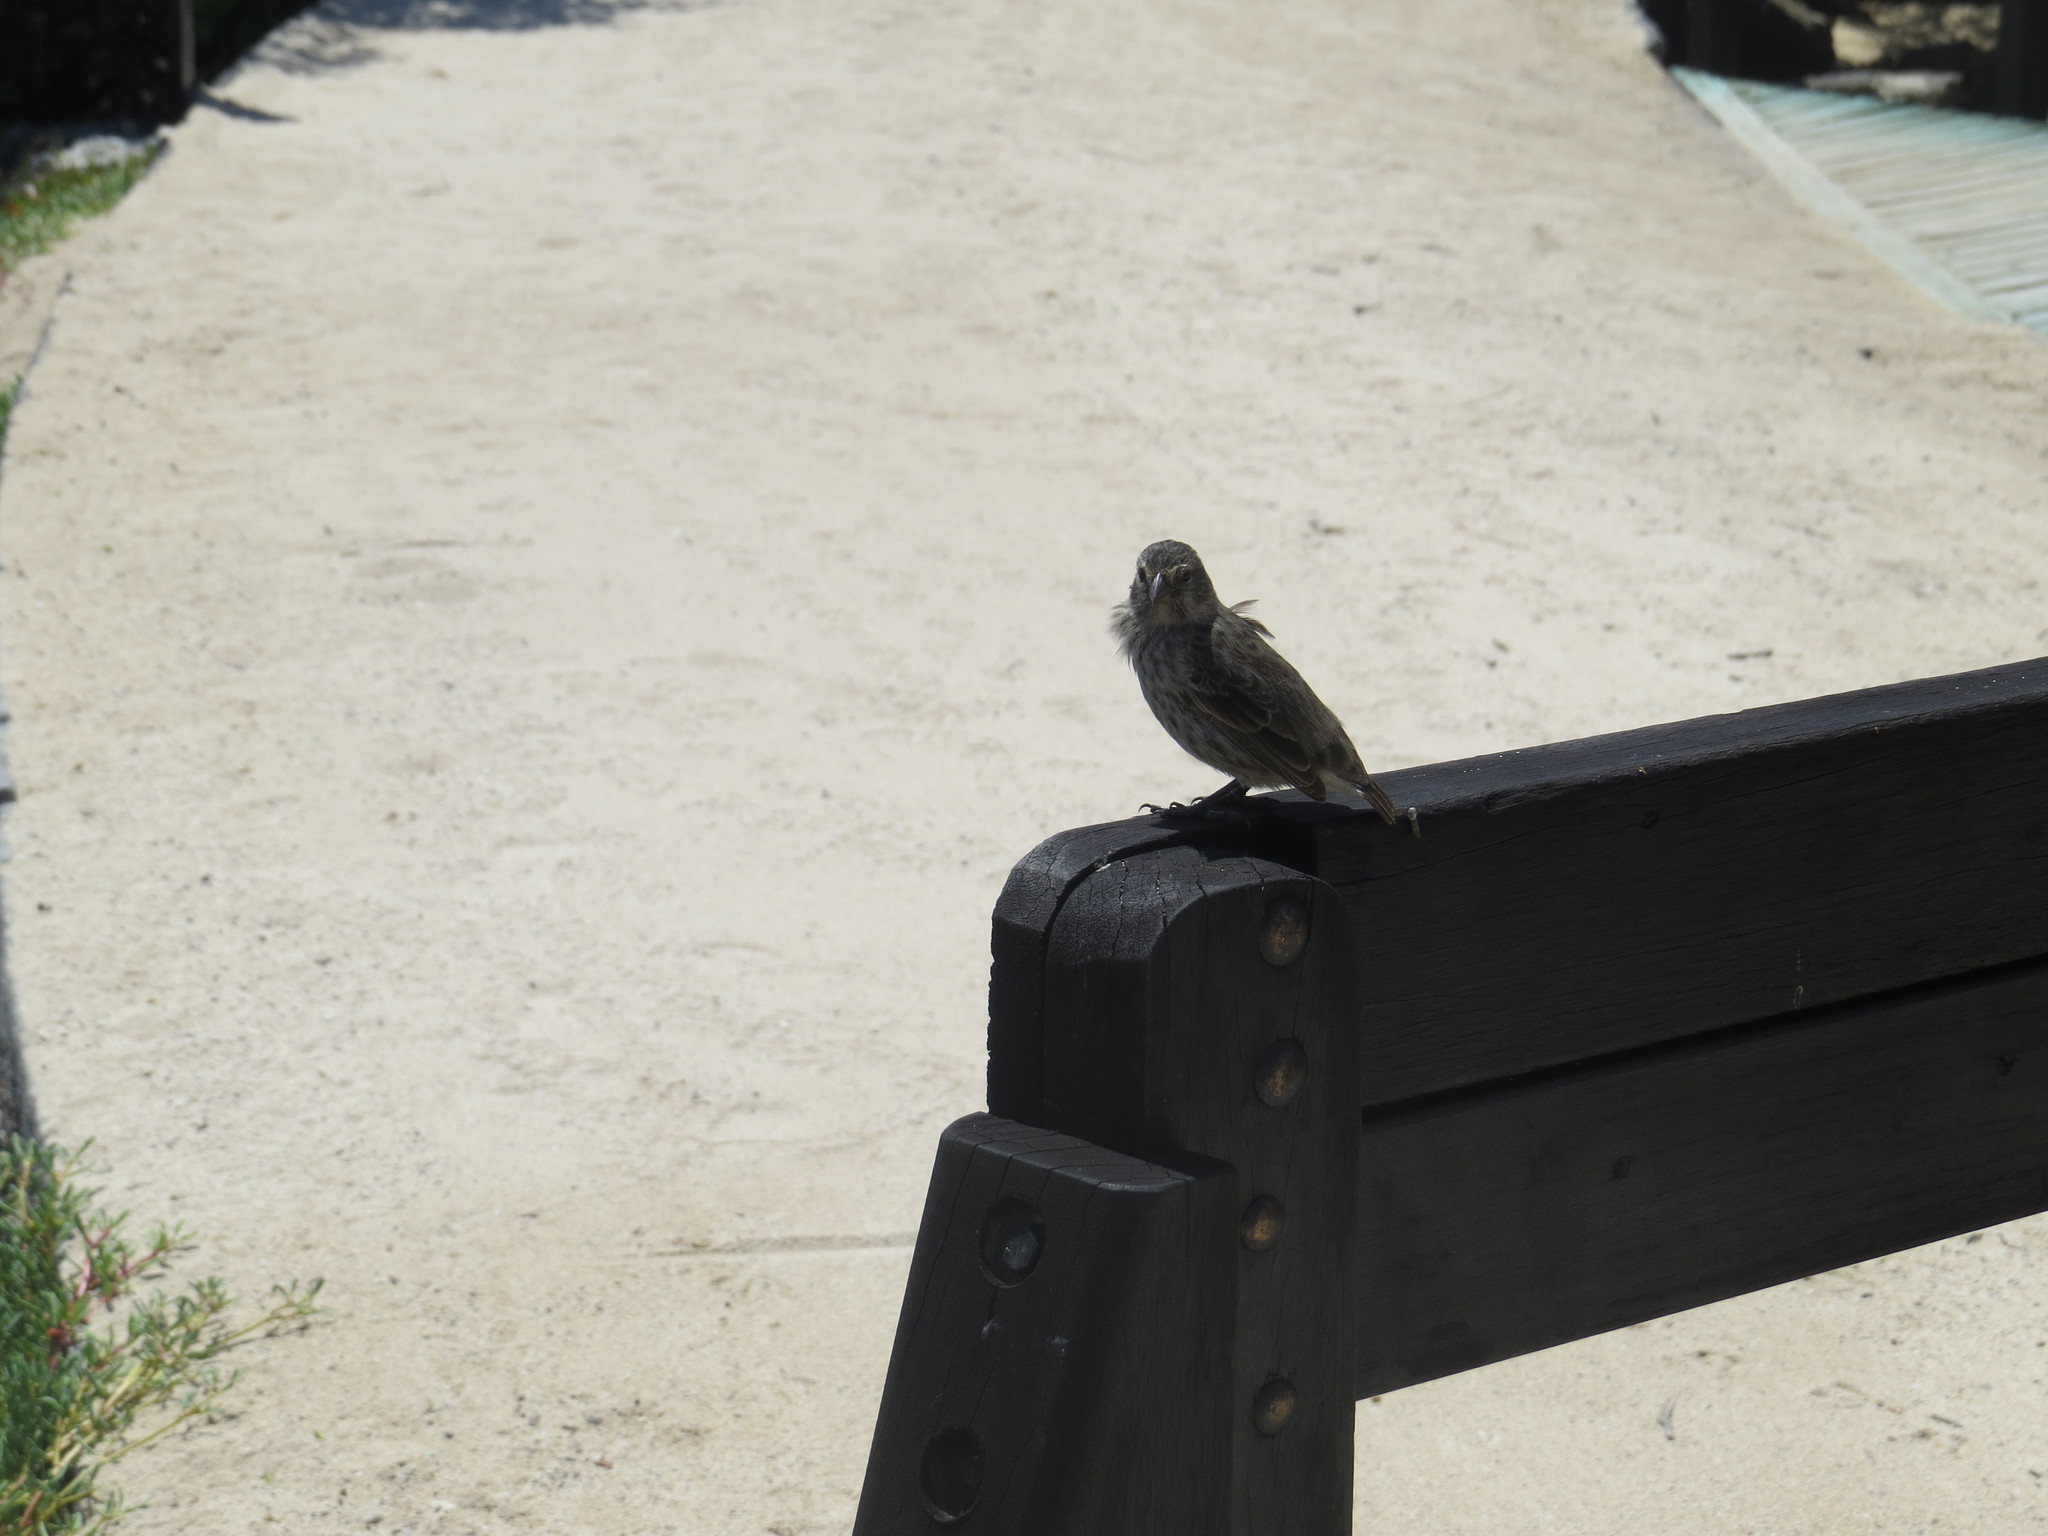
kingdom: Animalia
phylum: Chordata
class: Aves
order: Passeriformes
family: Thraupidae
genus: Geospiza
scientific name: Geospiza fuliginosa
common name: Small ground finch
